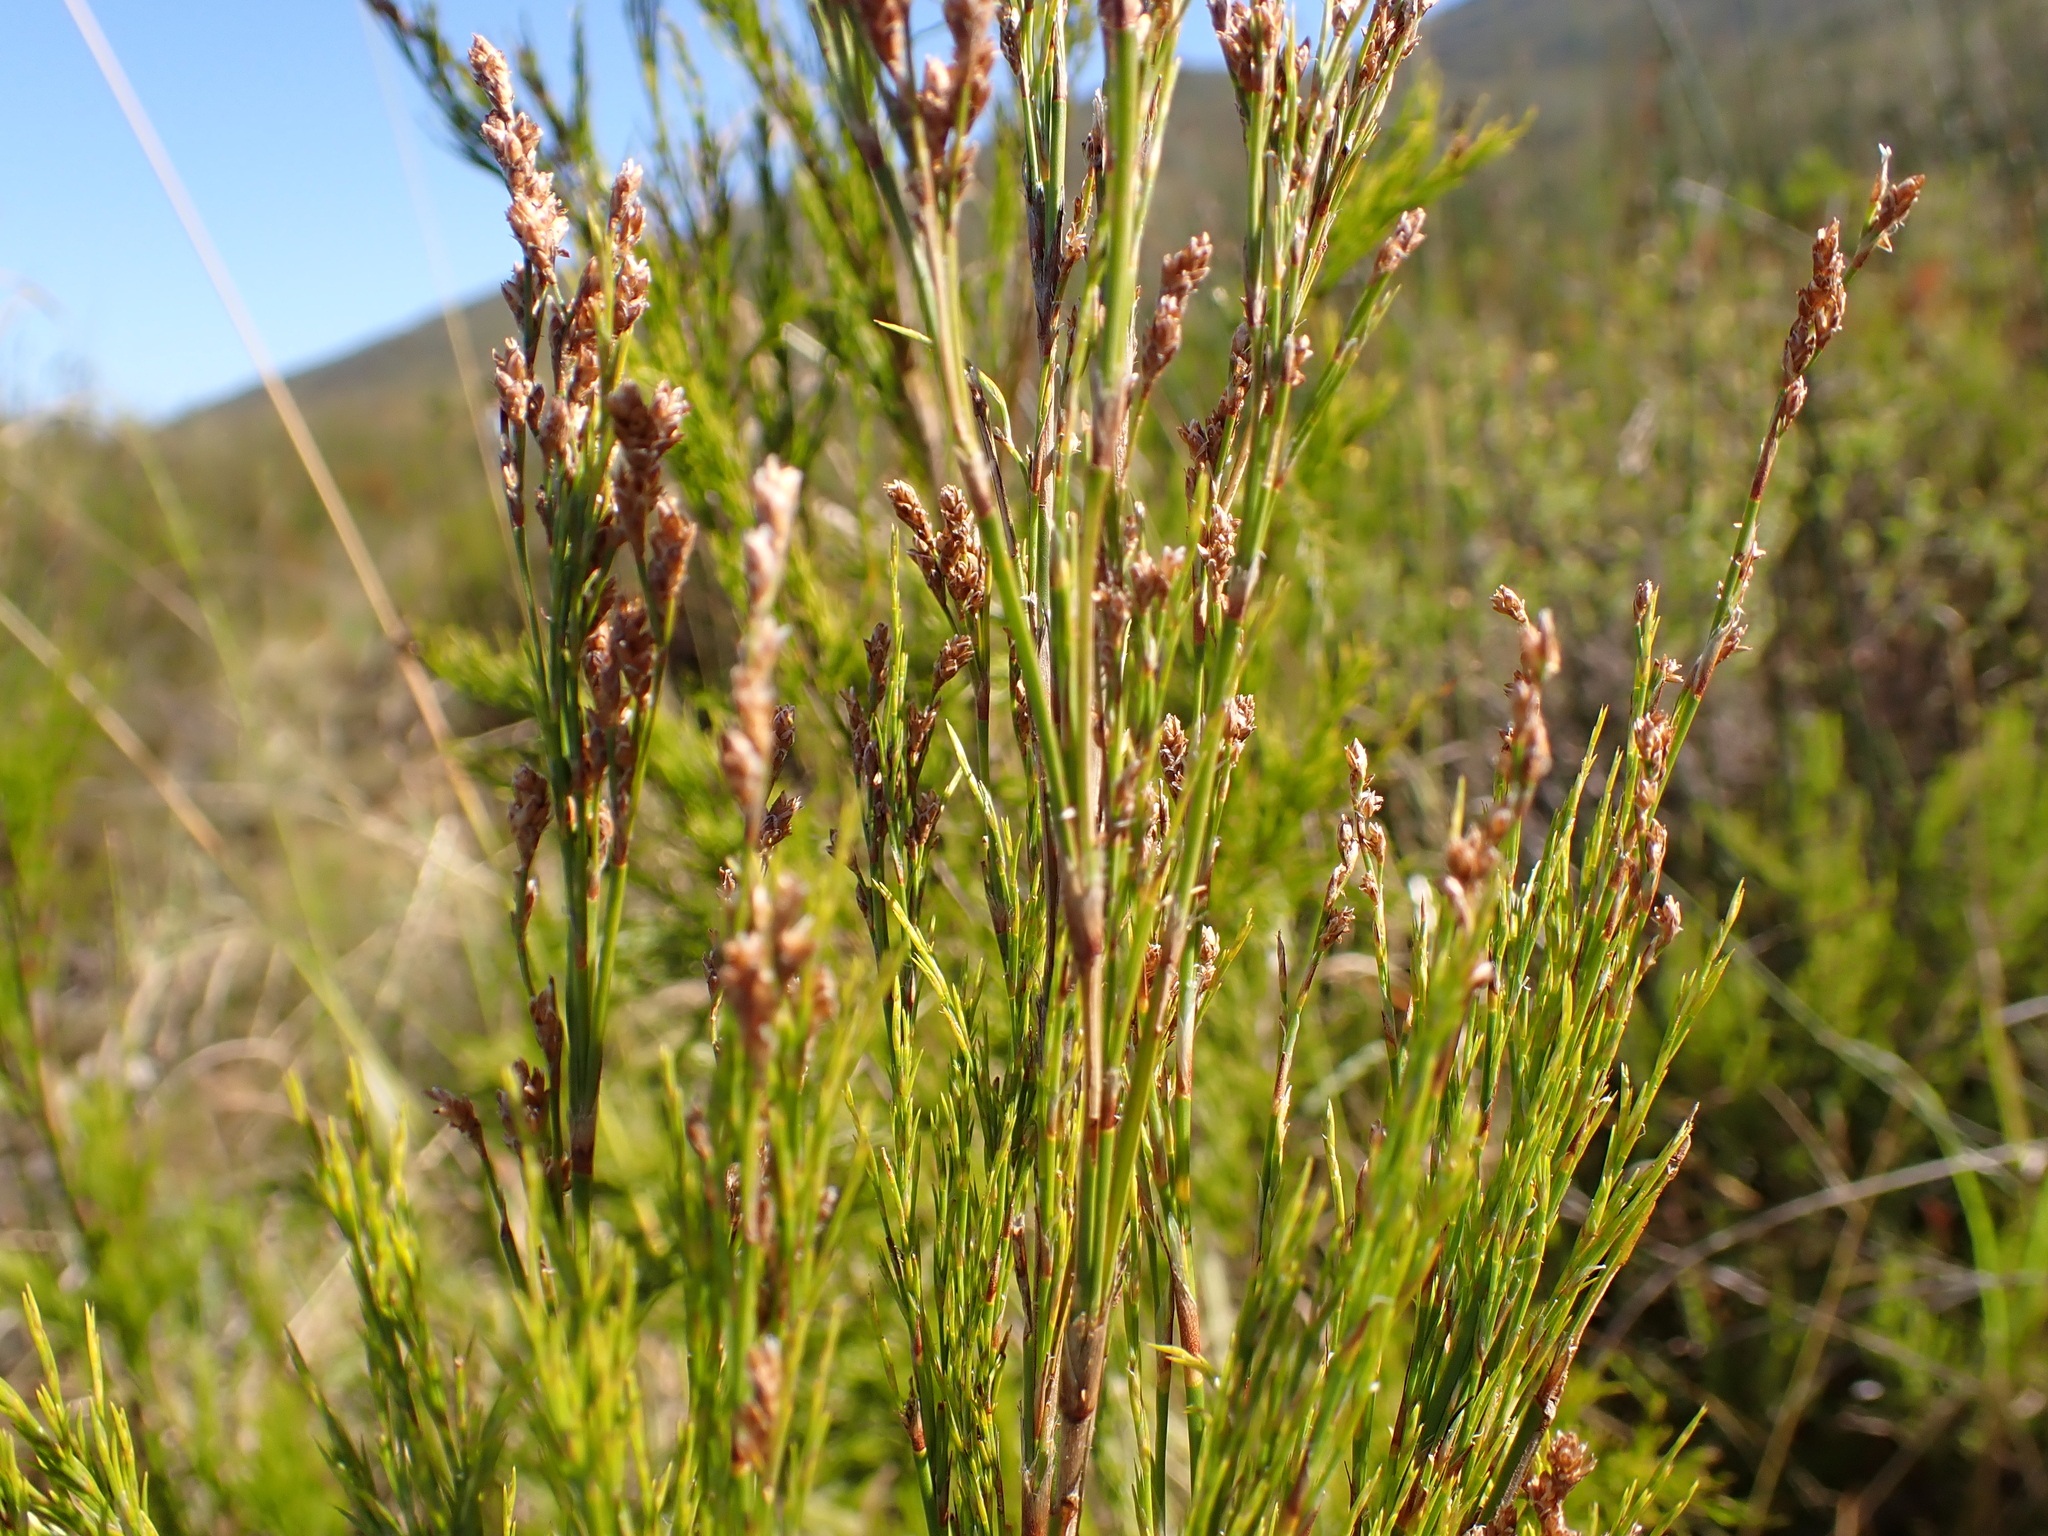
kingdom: Plantae
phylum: Tracheophyta
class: Liliopsida
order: Poales
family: Restionaceae
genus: Restio
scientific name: Restio paniculatus
